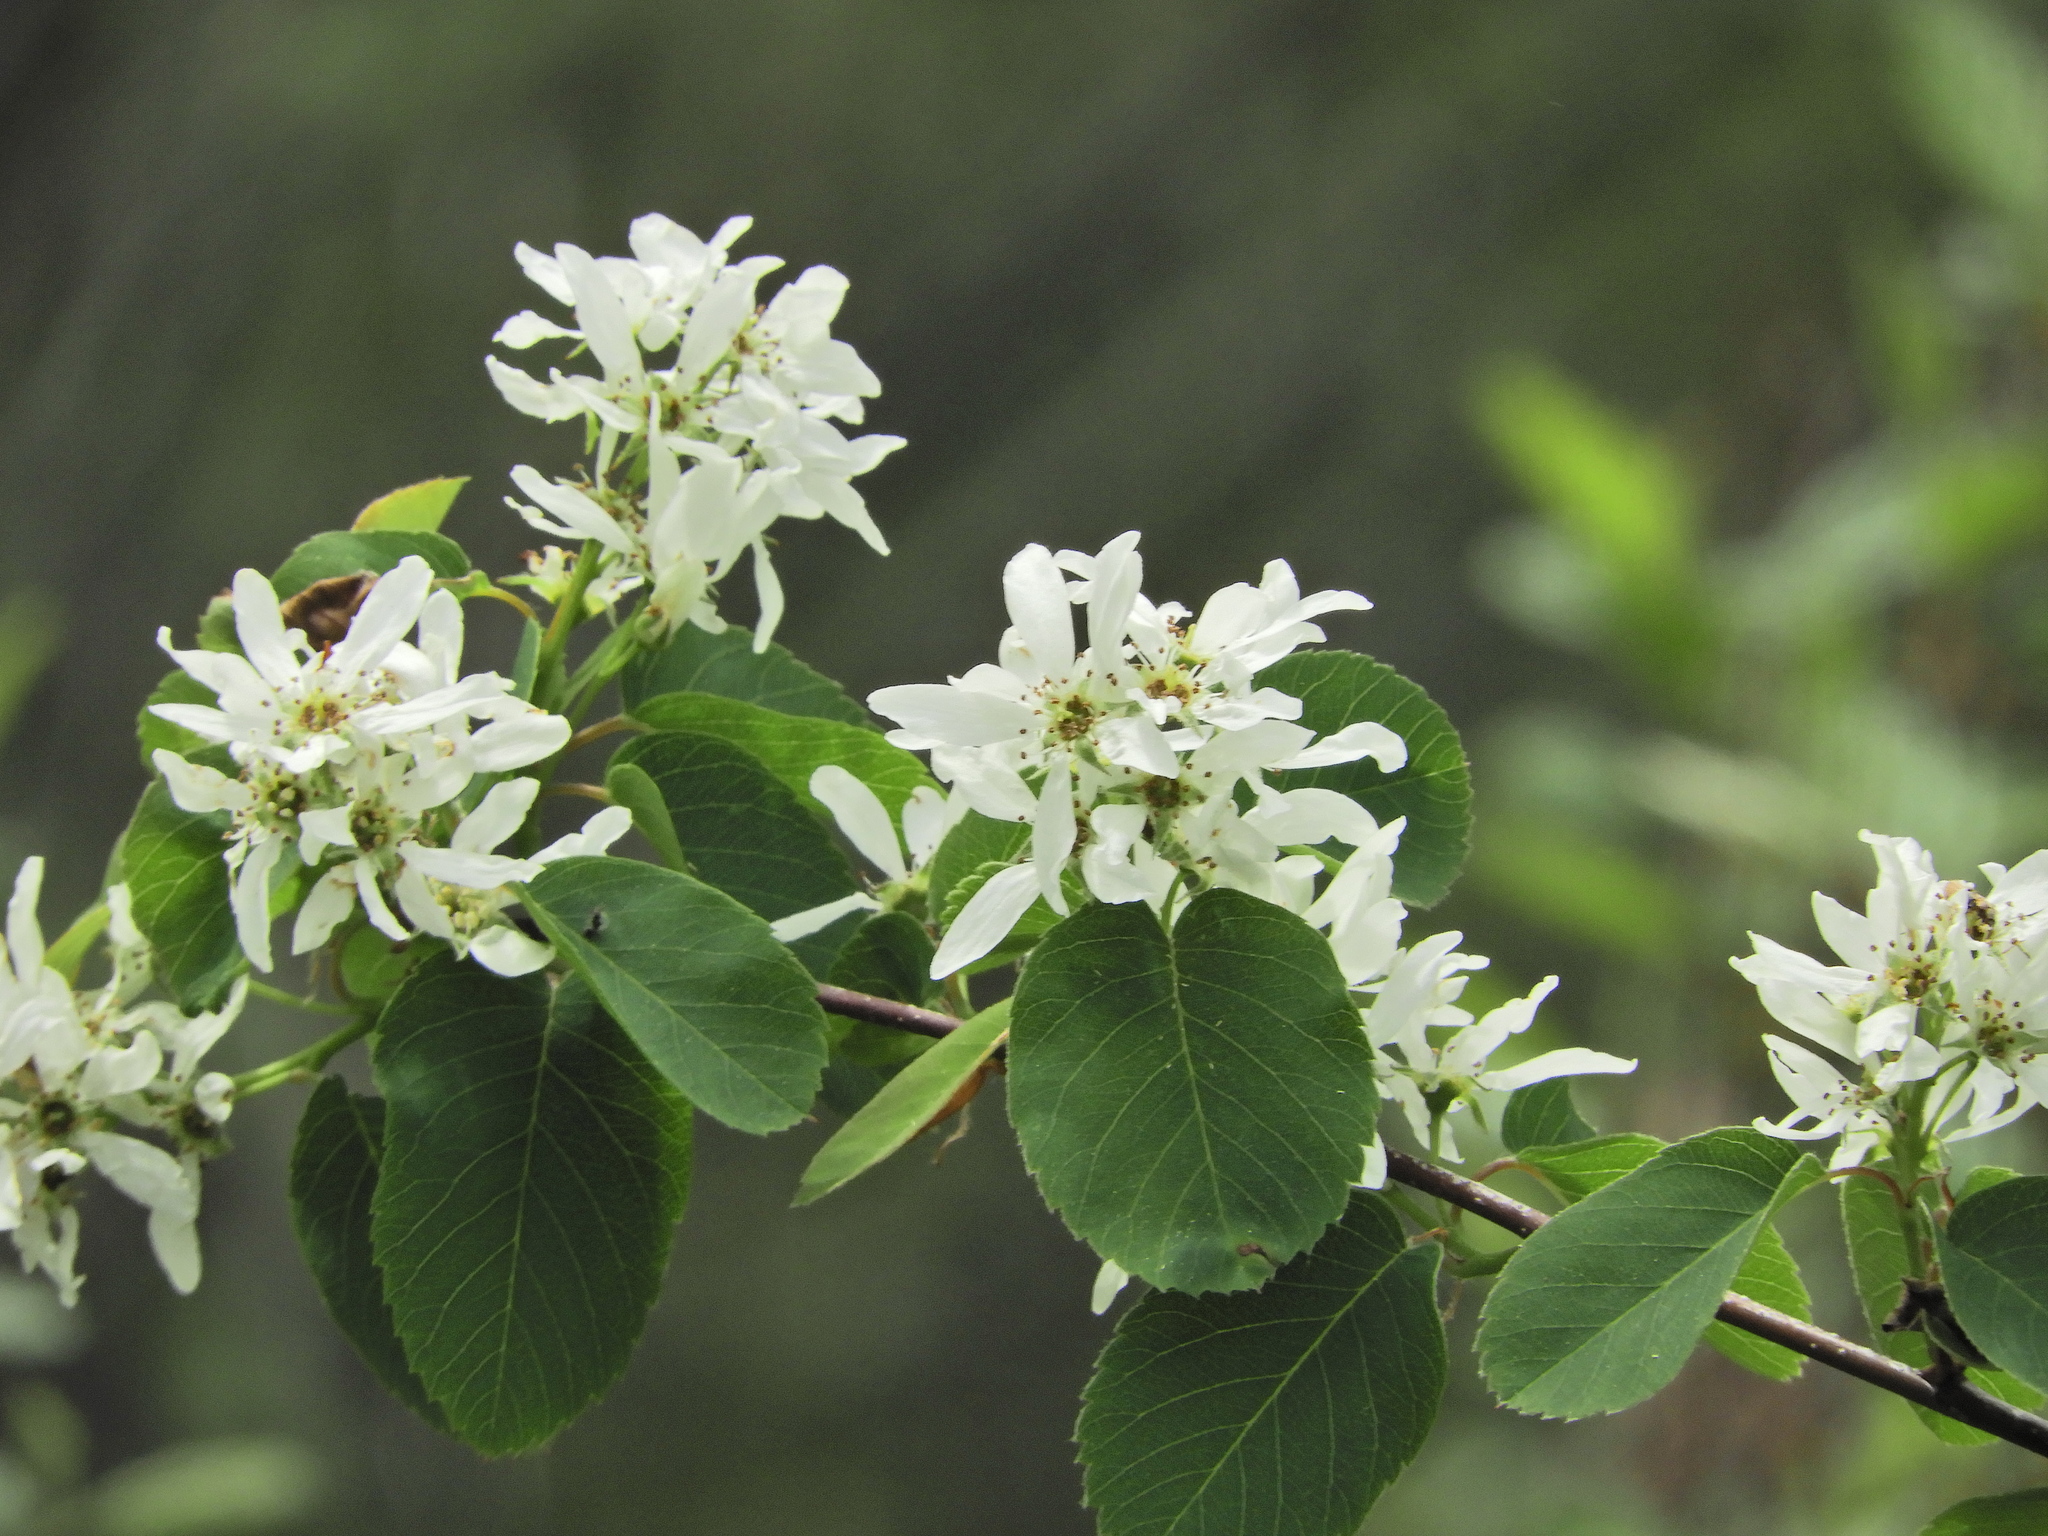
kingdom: Plantae
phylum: Tracheophyta
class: Magnoliopsida
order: Rosales
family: Rosaceae
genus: Amelanchier
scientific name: Amelanchier alnifolia
